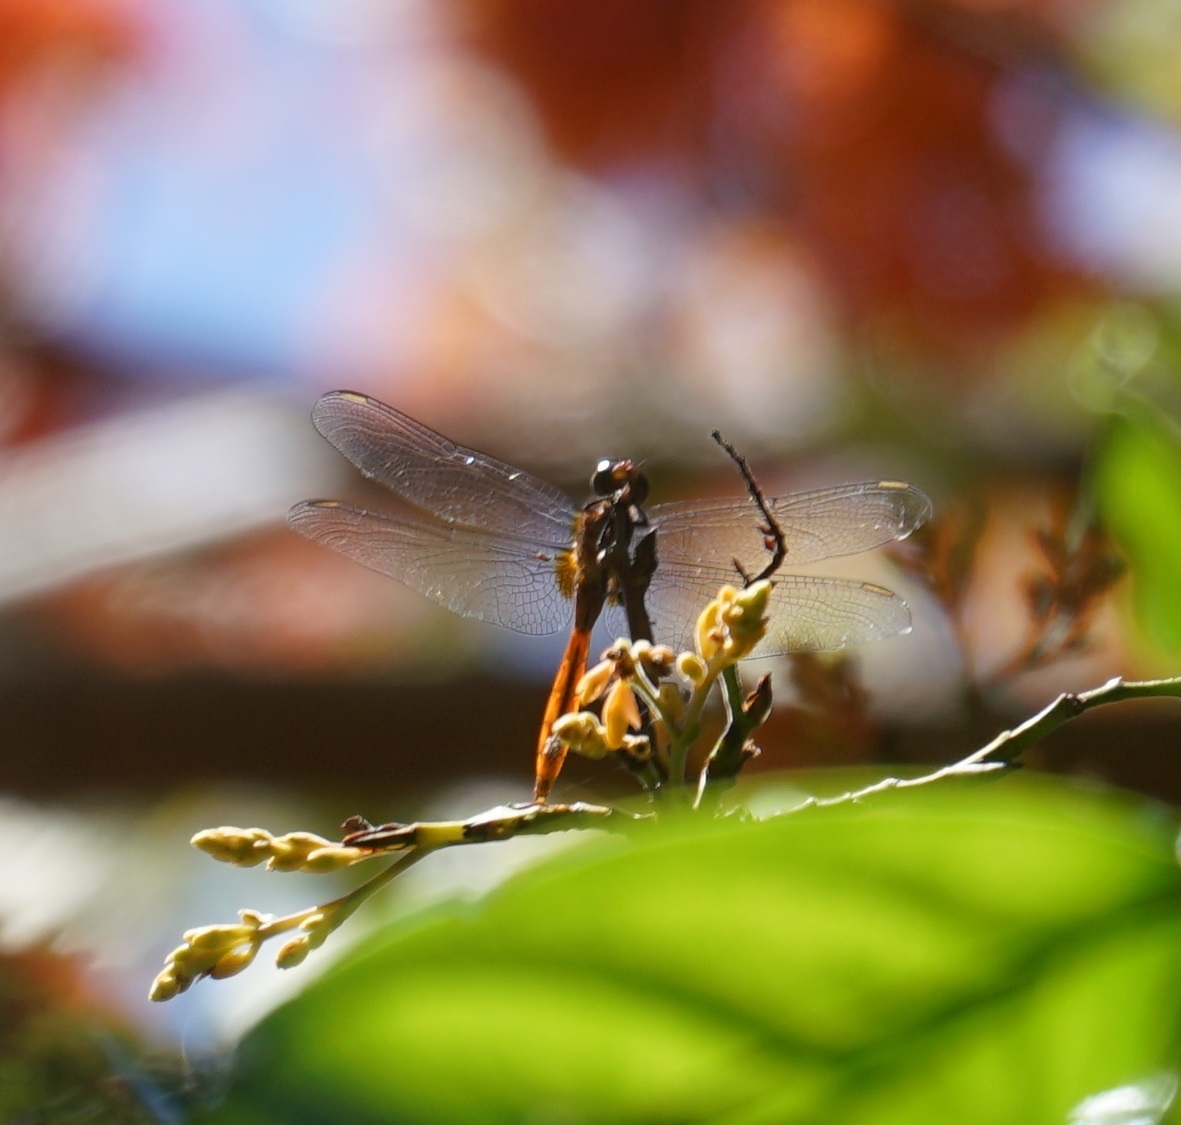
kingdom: Animalia
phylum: Arthropoda
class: Insecta
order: Odonata
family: Libellulidae
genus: Orthetrum
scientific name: Orthetrum villosovittatum
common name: Firery skimmer
